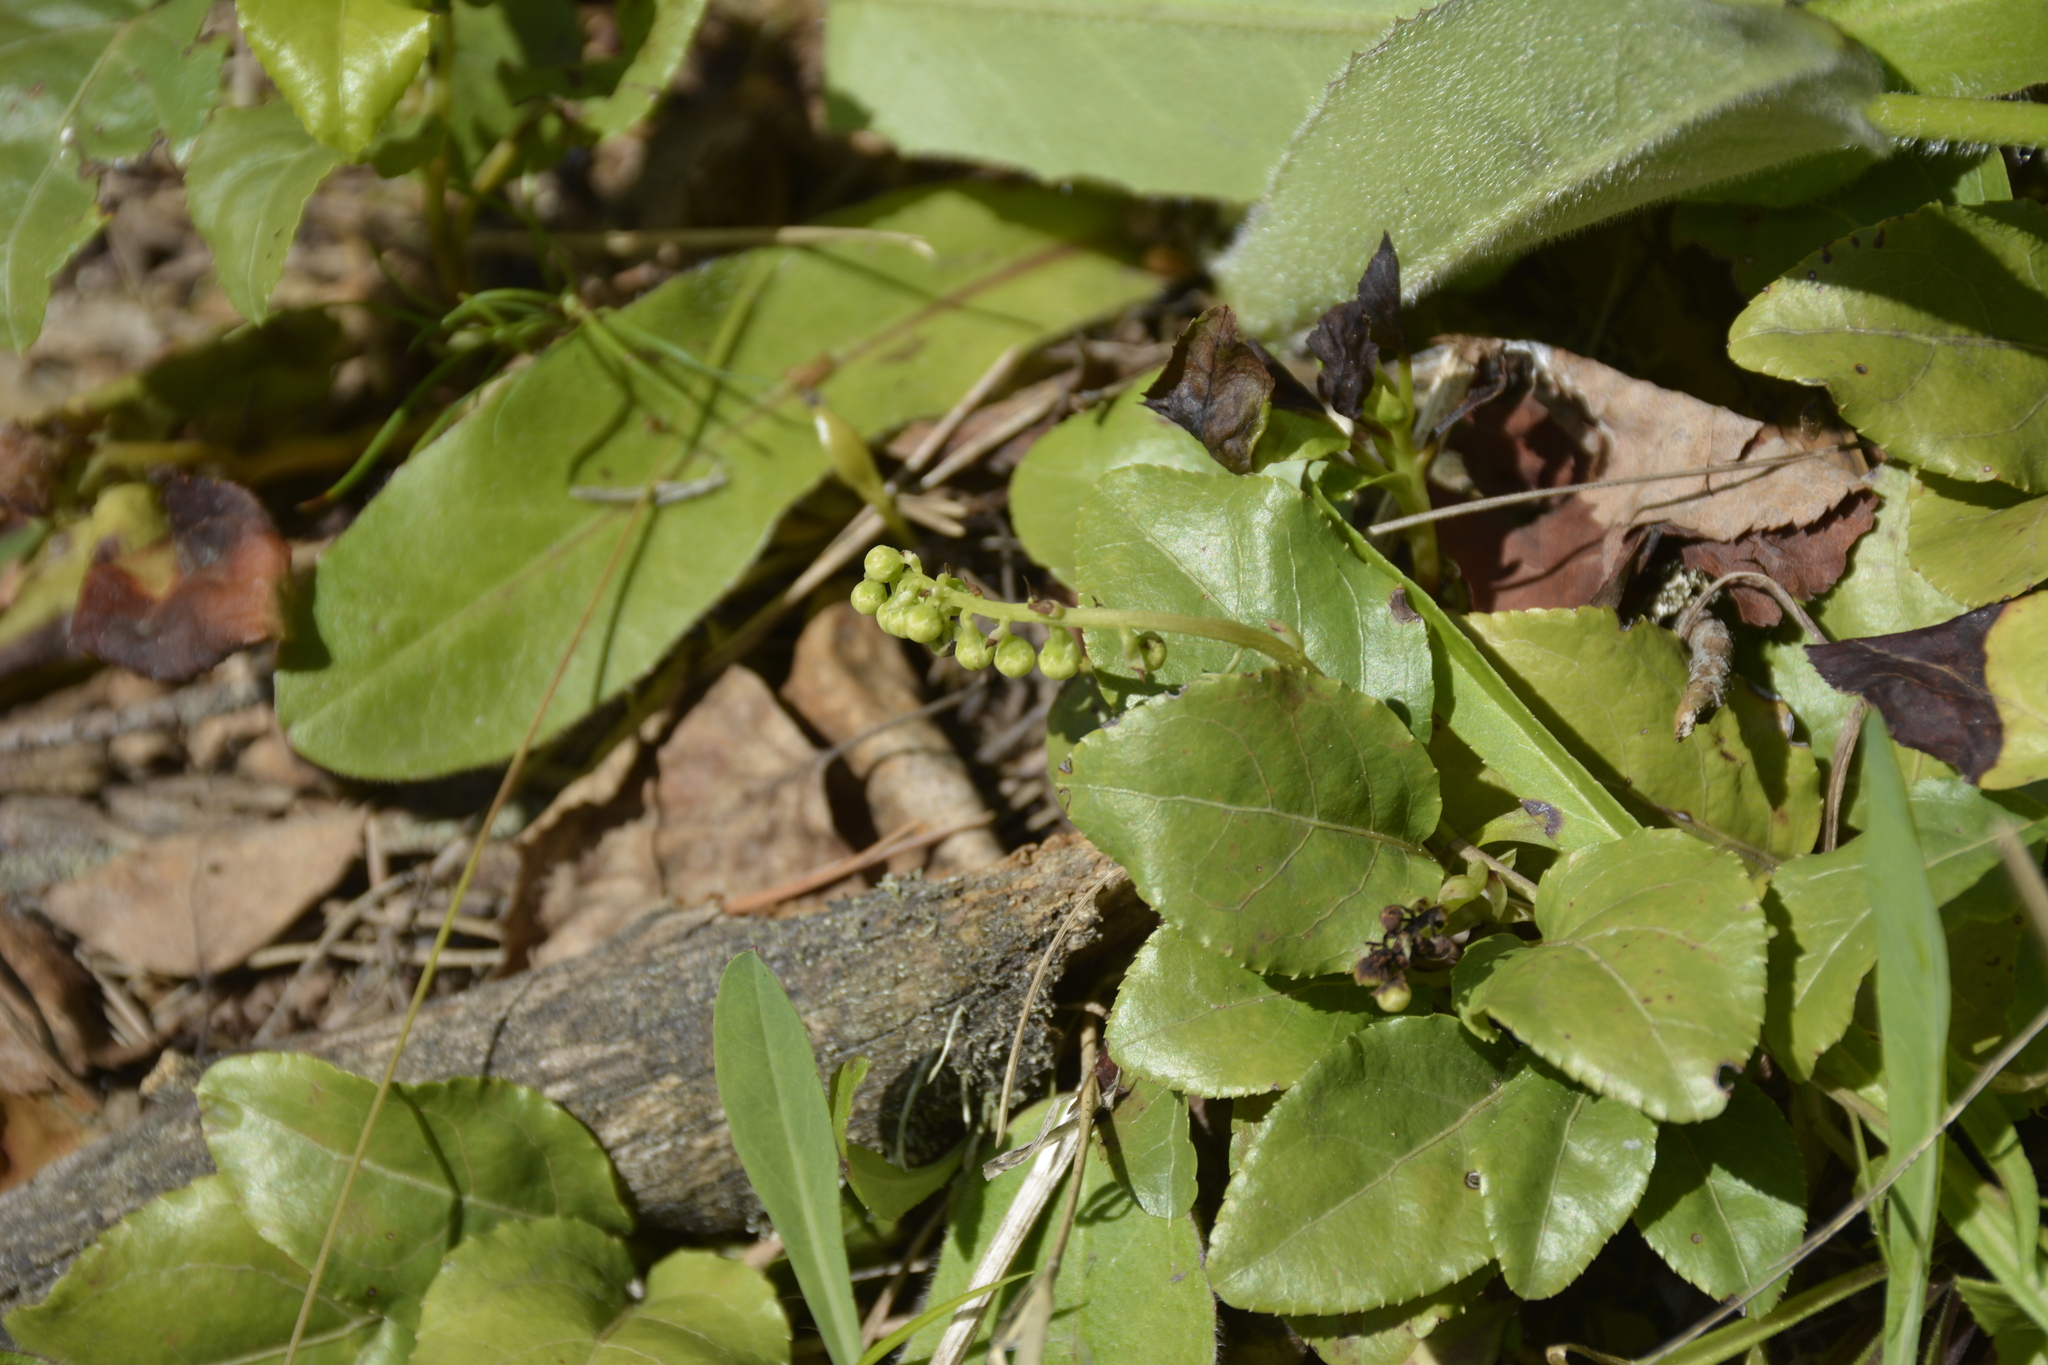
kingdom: Plantae
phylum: Tracheophyta
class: Magnoliopsida
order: Ericales
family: Ericaceae
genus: Orthilia
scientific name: Orthilia secunda
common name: One-sided orthilia
